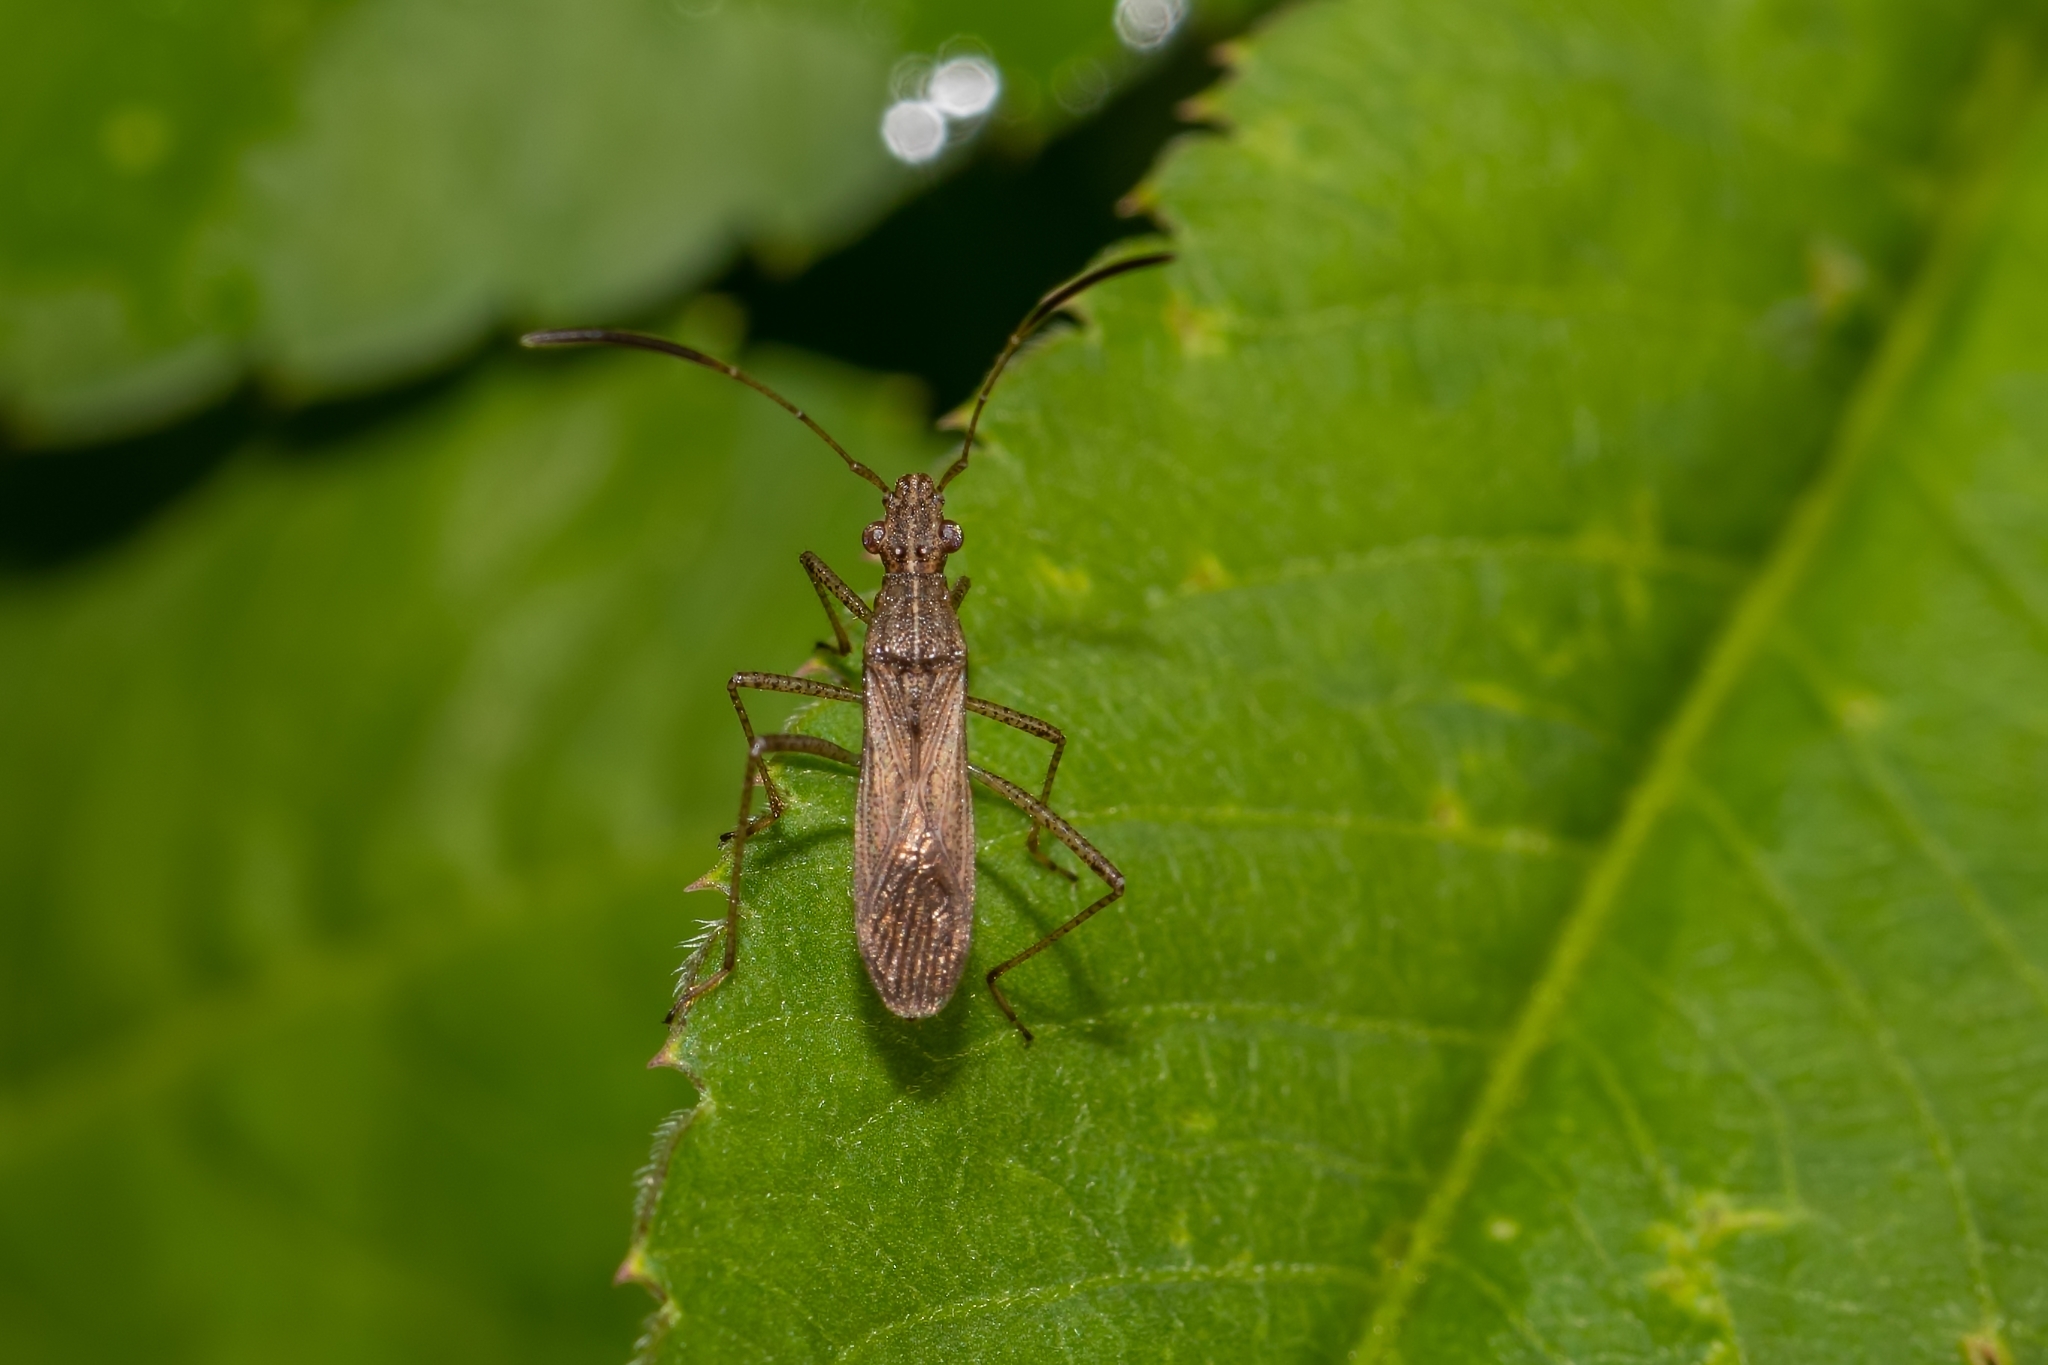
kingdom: Animalia
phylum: Arthropoda
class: Insecta
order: Hemiptera
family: Alydidae
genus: Esperanza
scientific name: Esperanza texana
